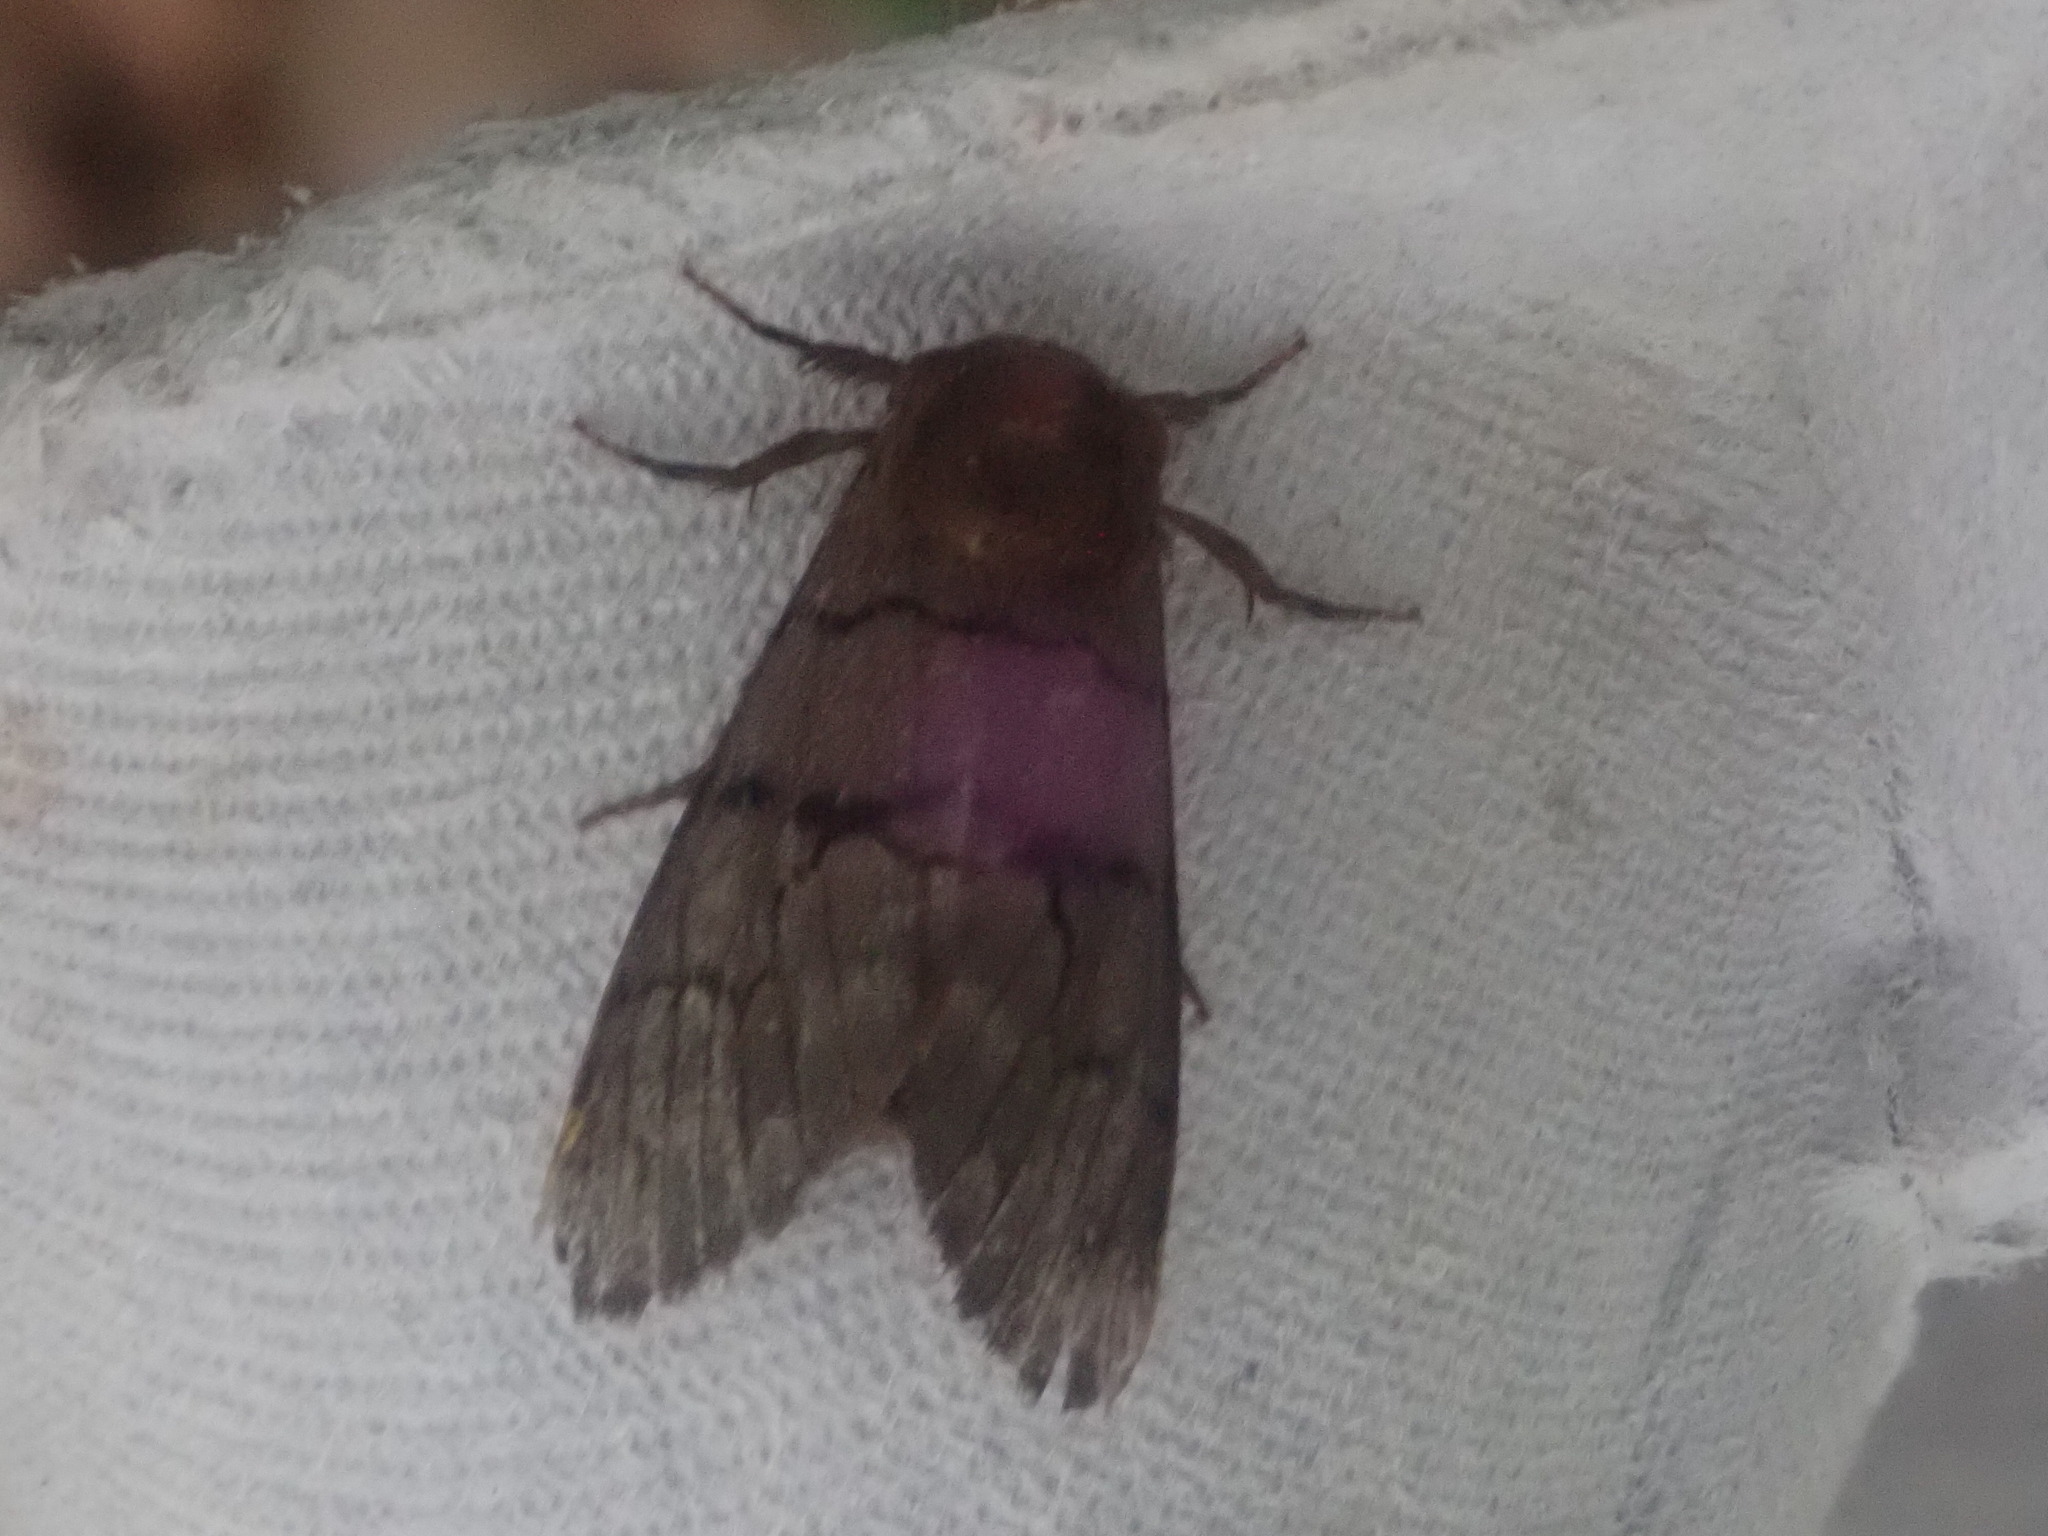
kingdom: Animalia
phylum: Arthropoda
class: Insecta
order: Lepidoptera
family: Noctuidae
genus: Panthea
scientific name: Panthea furcilla
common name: Eastern panthea moth
